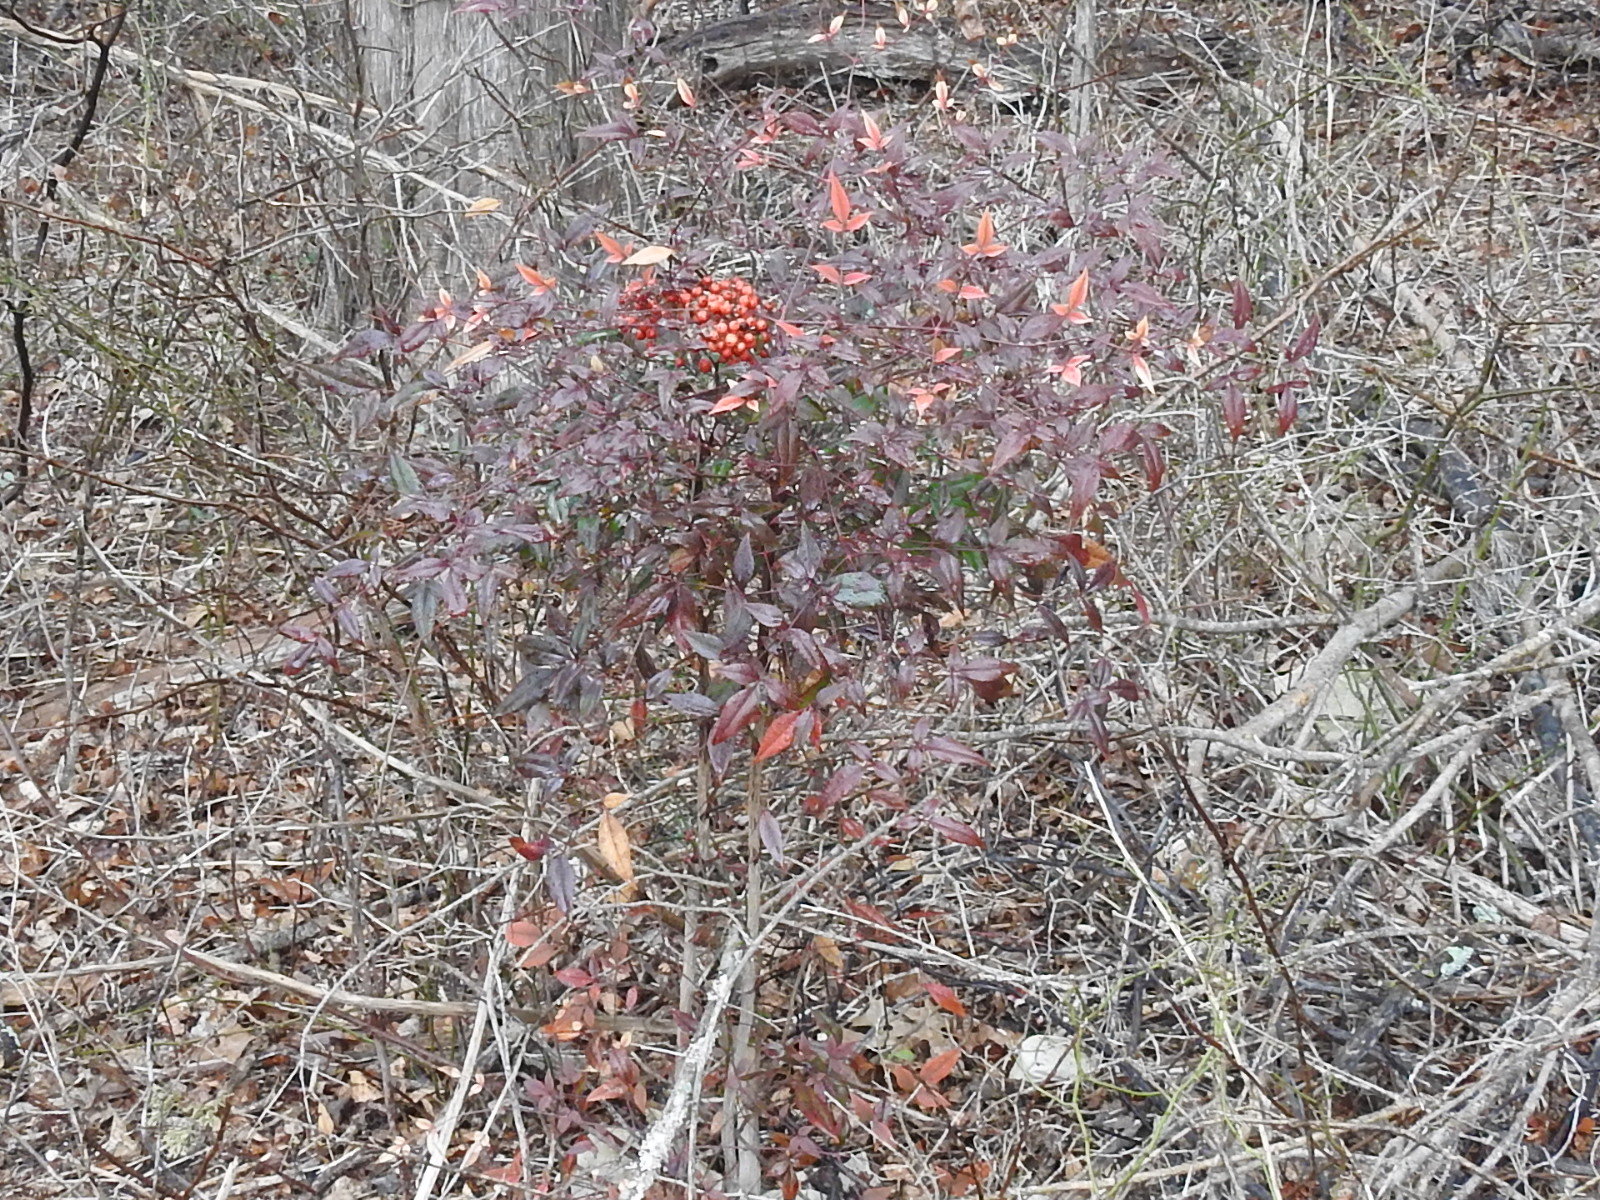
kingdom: Plantae
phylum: Tracheophyta
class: Magnoliopsida
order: Ranunculales
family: Berberidaceae
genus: Nandina
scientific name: Nandina domestica
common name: Sacred bamboo
